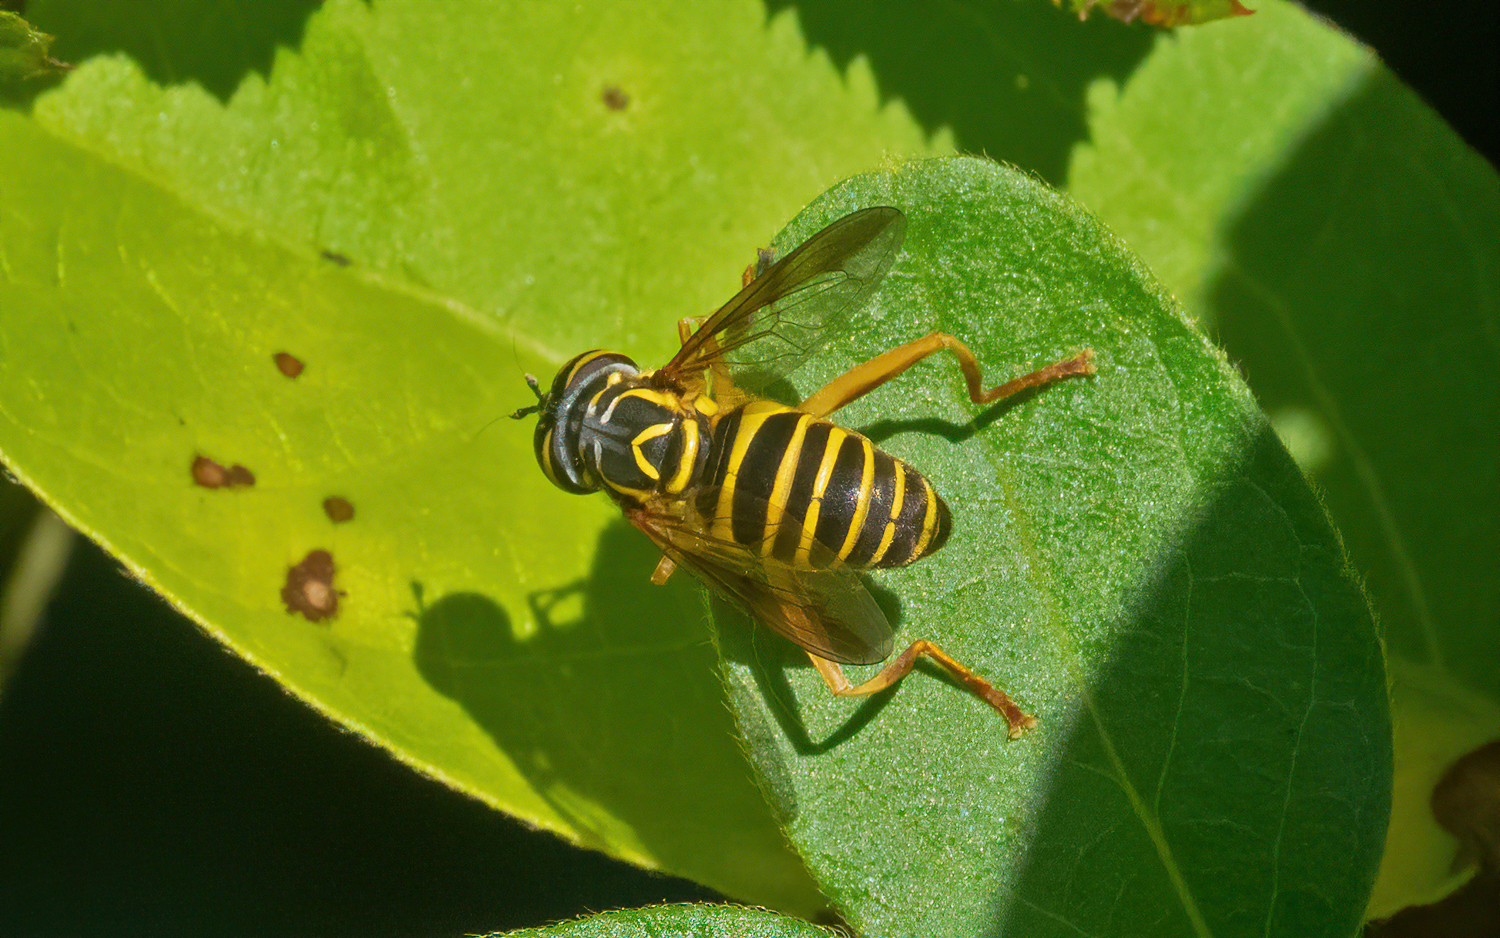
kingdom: Animalia
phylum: Arthropoda
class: Insecta
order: Diptera
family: Syrphidae
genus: Spilomyia
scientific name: Spilomyia longicornis
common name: Eastern hornet fly
